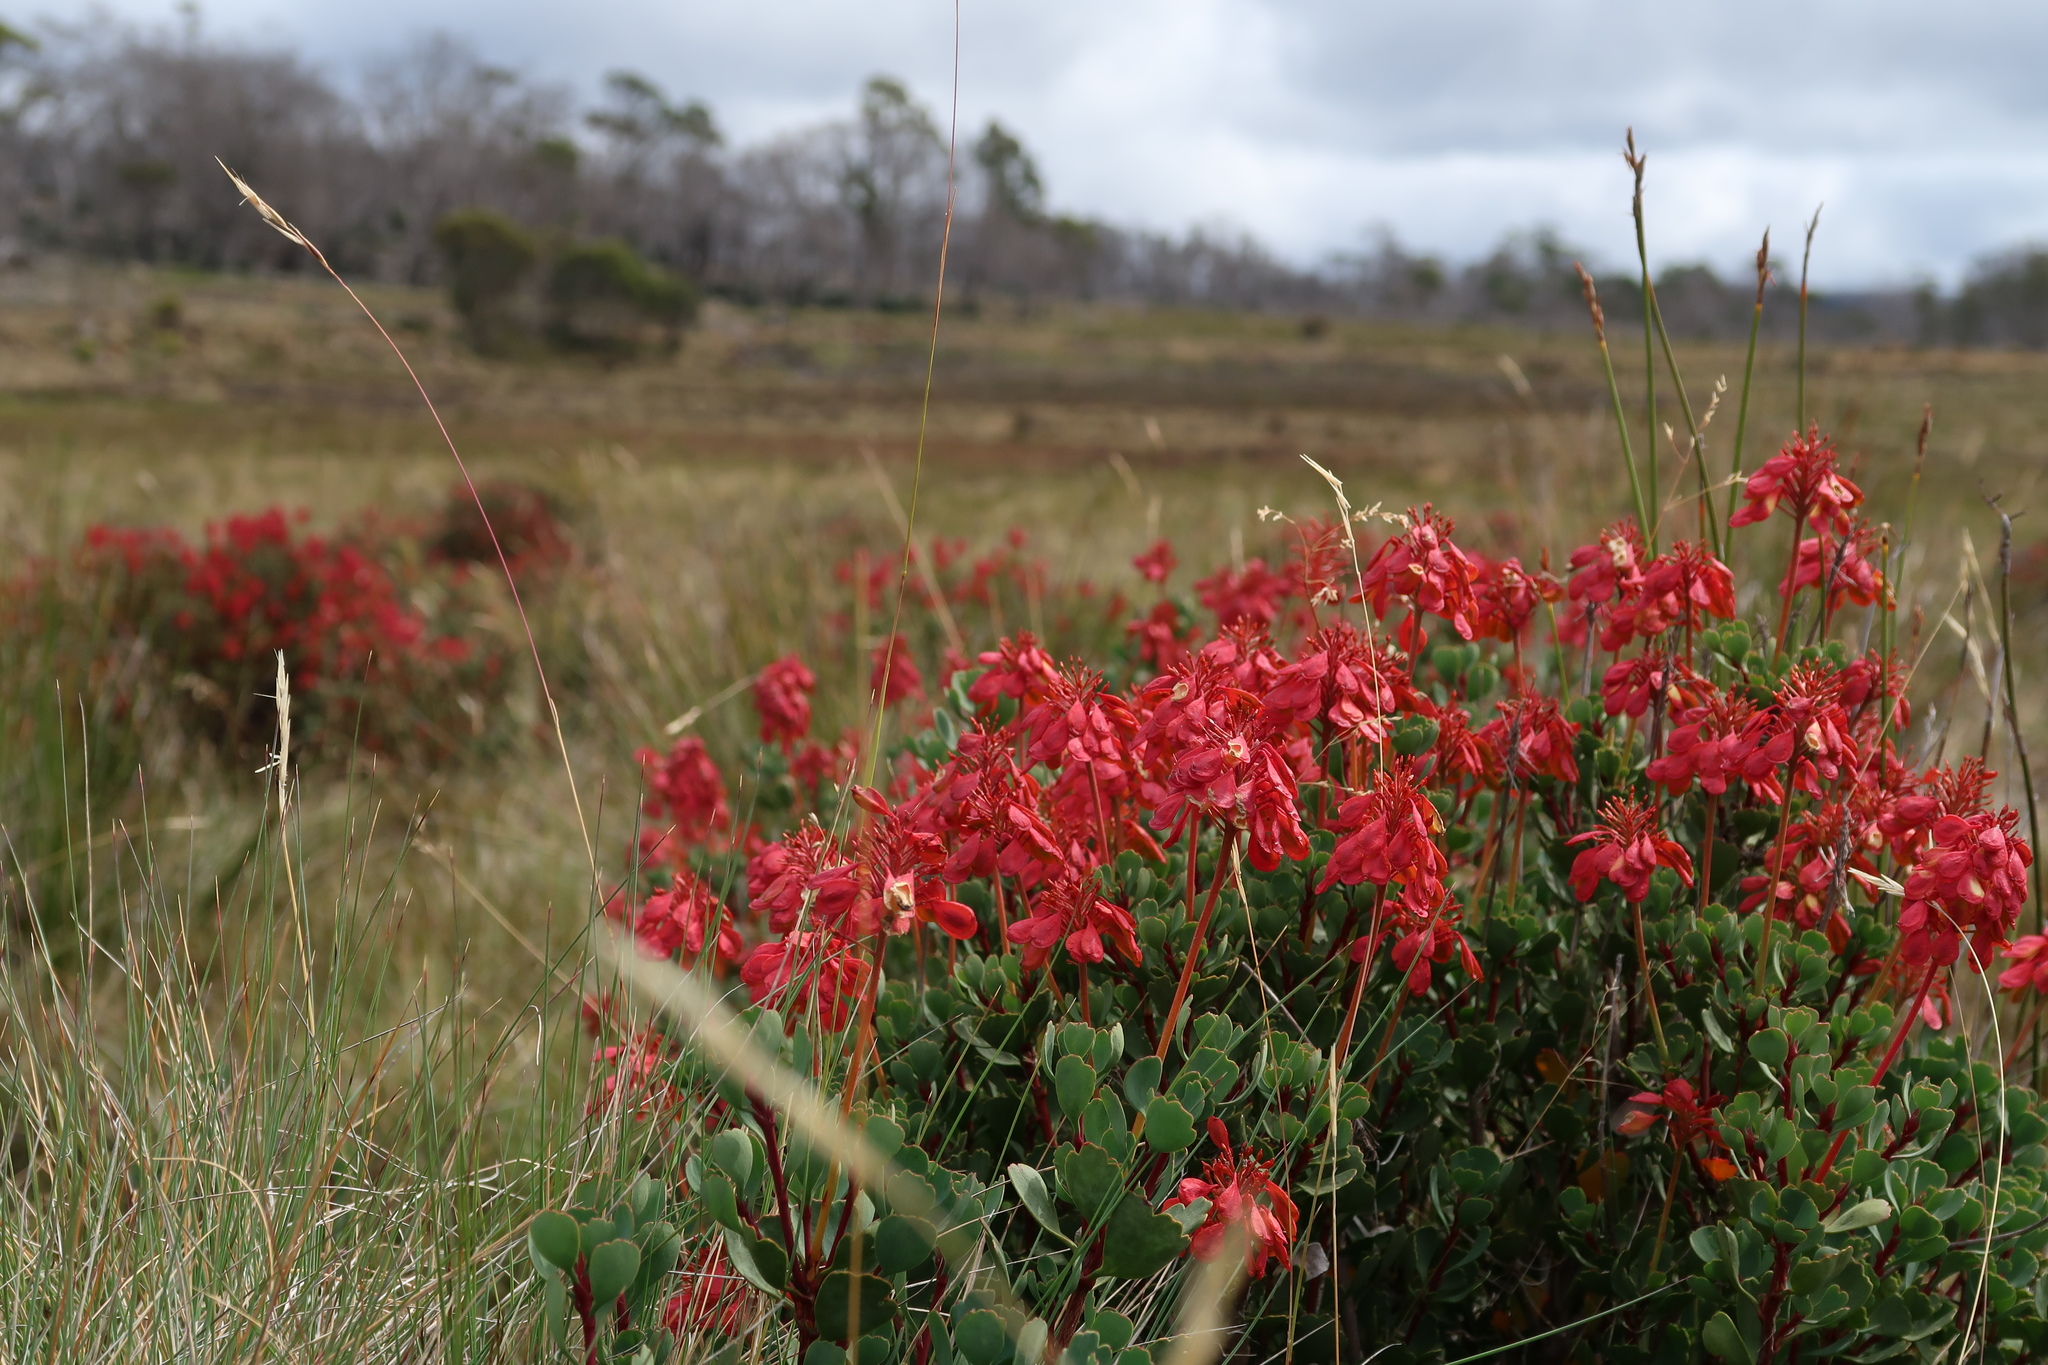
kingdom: Plantae
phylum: Tracheophyta
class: Magnoliopsida
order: Proteales
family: Proteaceae
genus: Bellendena
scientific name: Bellendena montana
